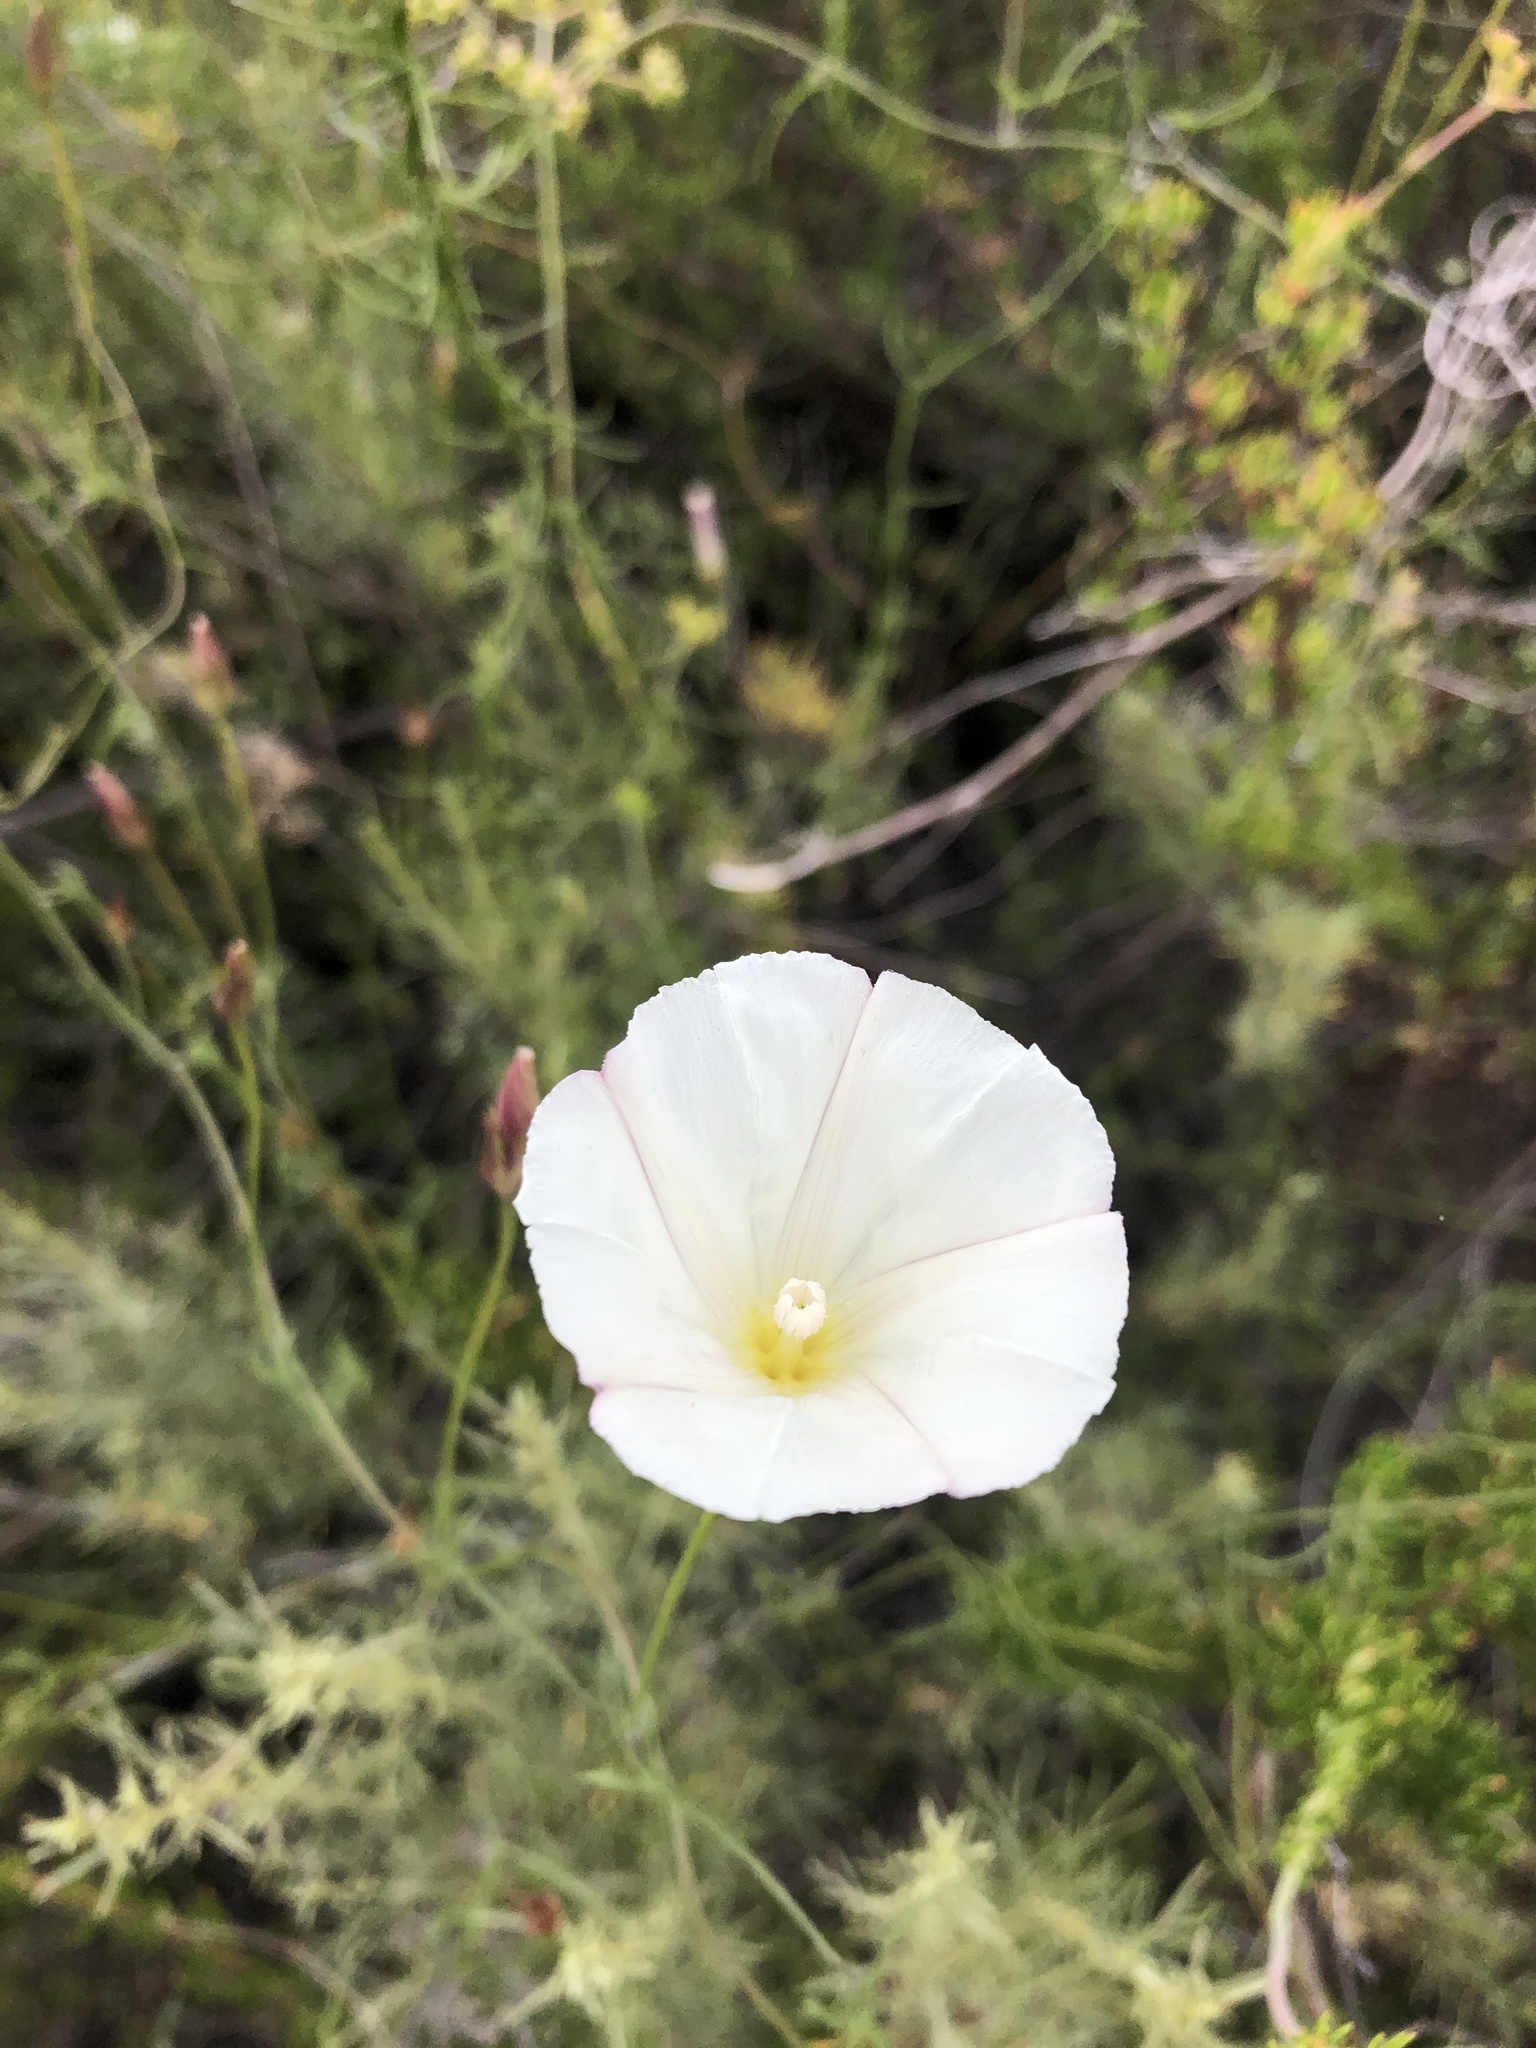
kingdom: Plantae
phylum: Tracheophyta
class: Magnoliopsida
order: Solanales
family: Convolvulaceae
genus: Calystegia
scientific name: Calystegia macrostegia
